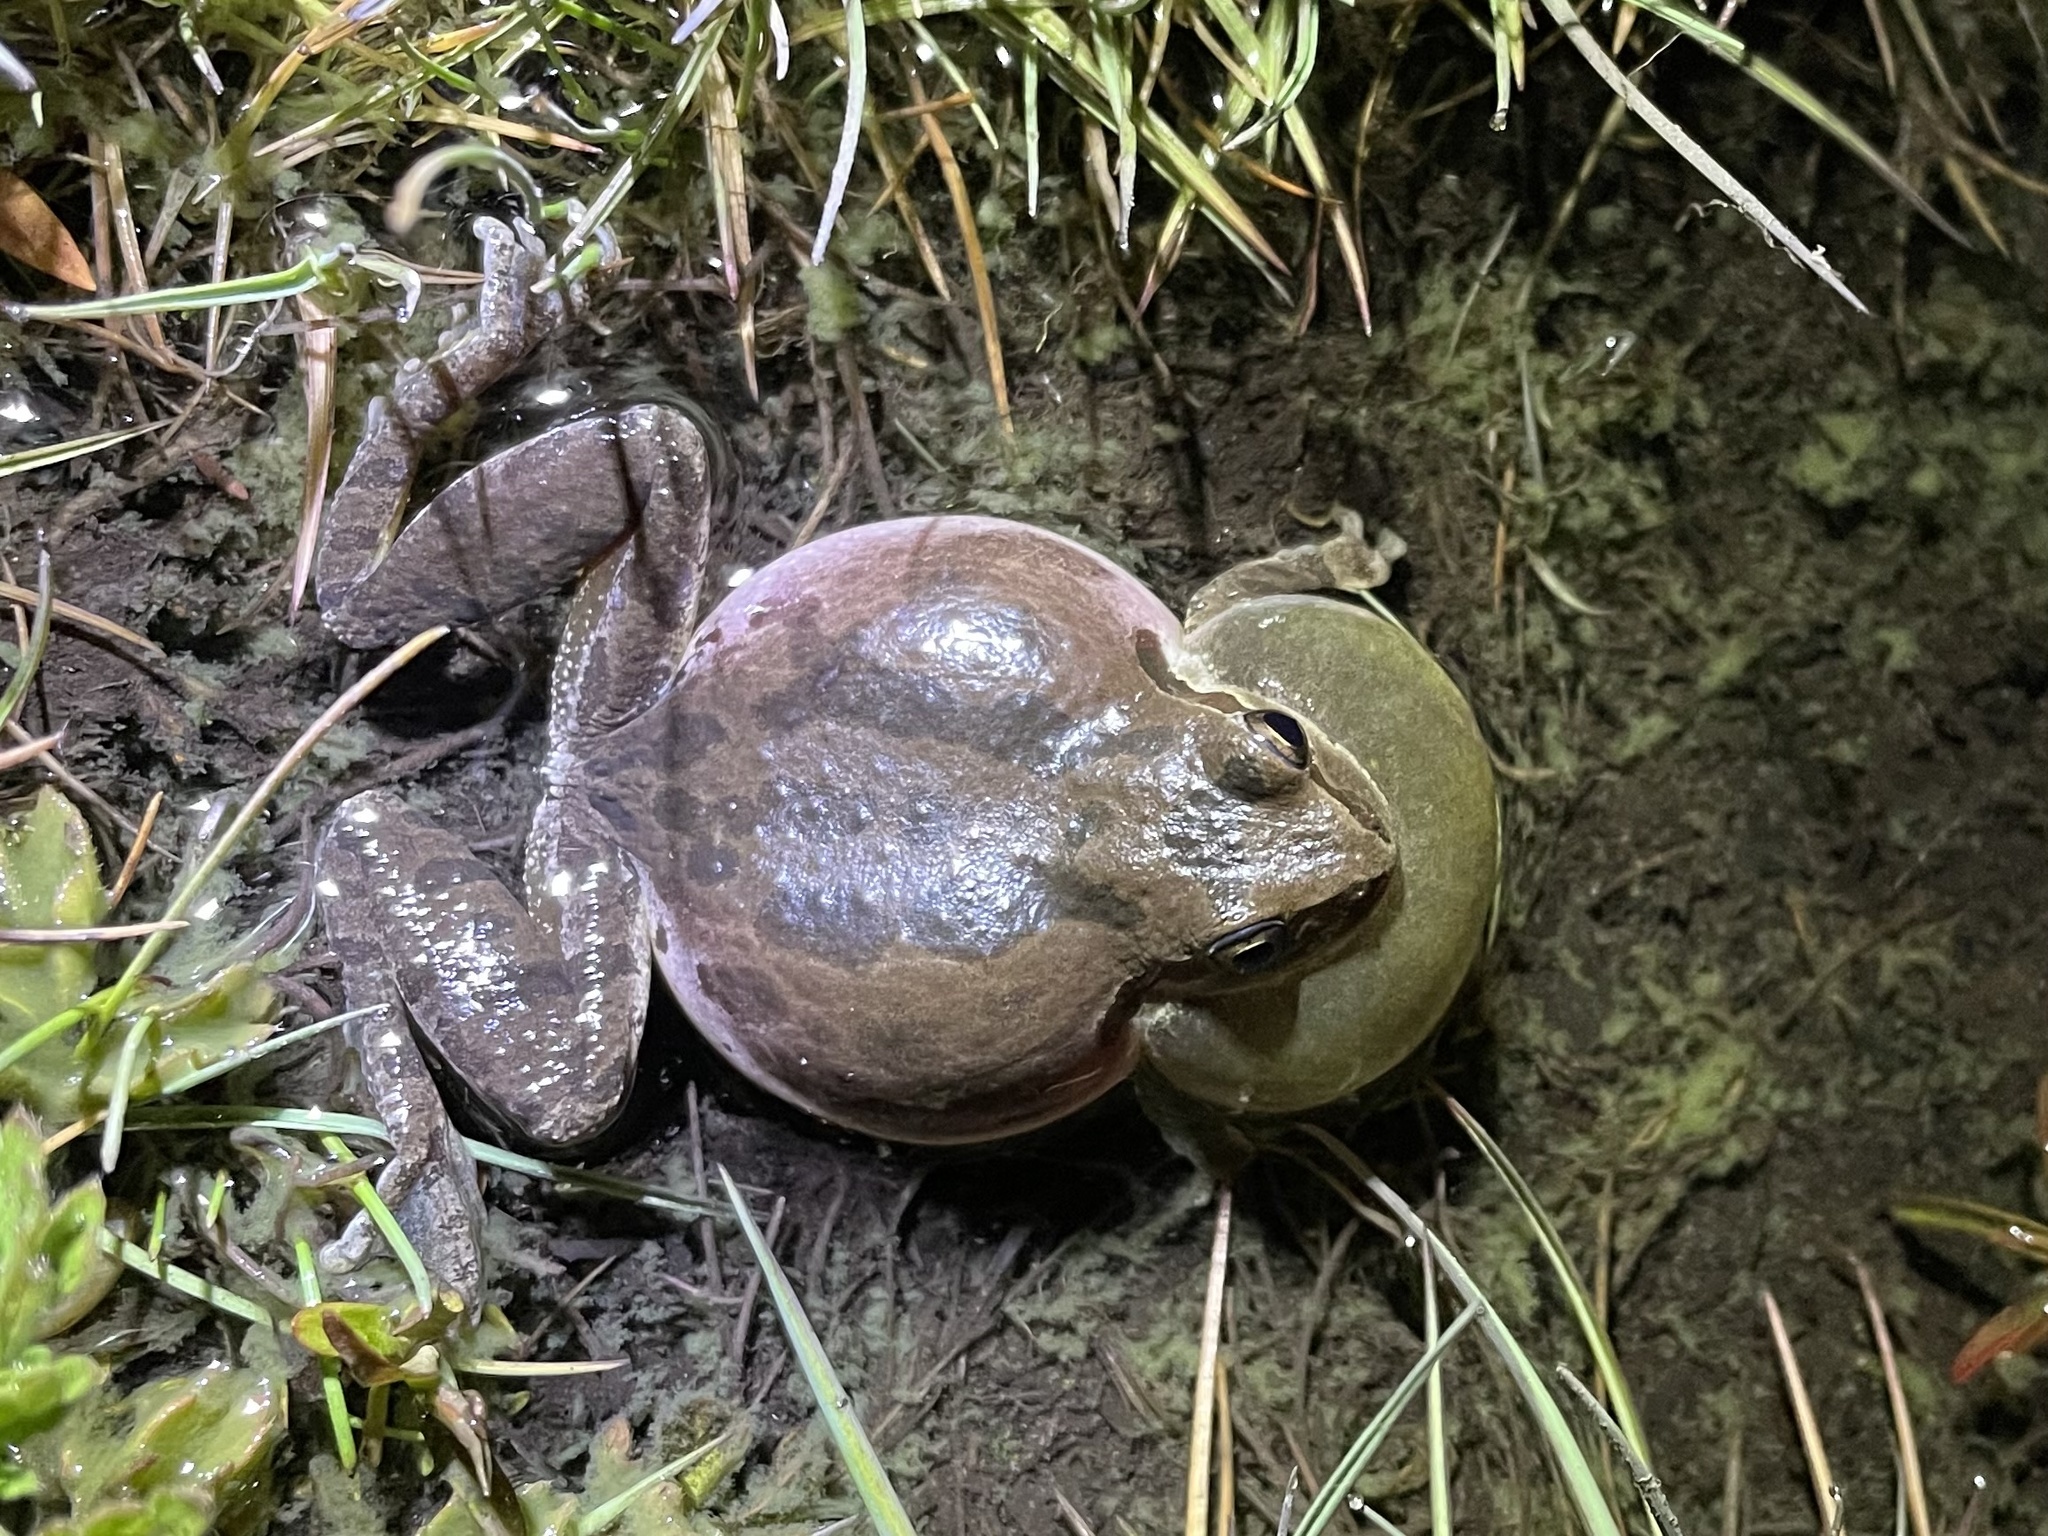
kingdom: Animalia
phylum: Chordata
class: Amphibia
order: Anura
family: Hylidae
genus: Pseudacris
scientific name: Pseudacris regilla
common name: Pacific chorus frog
